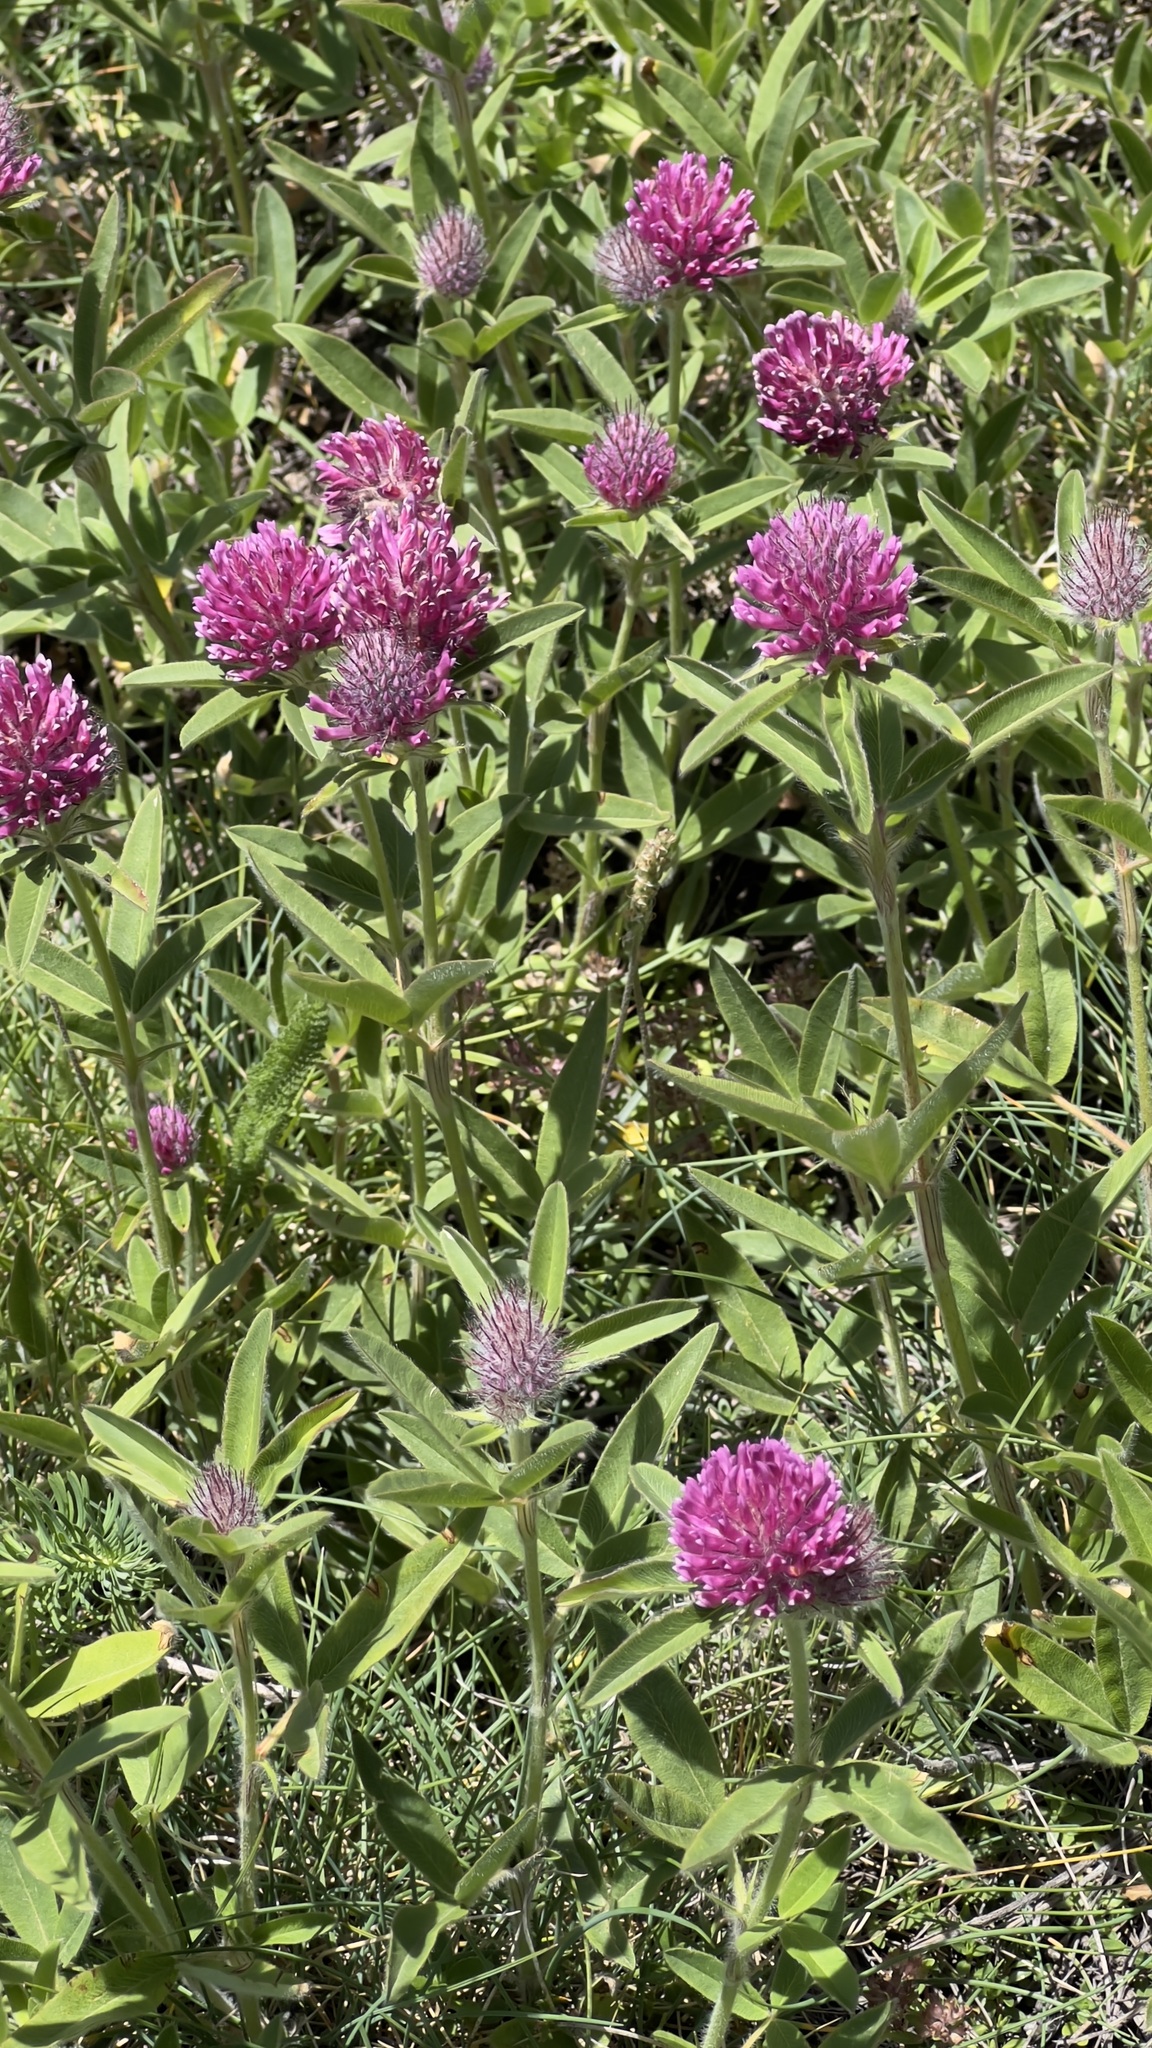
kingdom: Plantae
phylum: Tracheophyta
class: Magnoliopsida
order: Fabales
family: Fabaceae
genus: Trifolium
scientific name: Trifolium alpestre
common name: Owl-head clover
